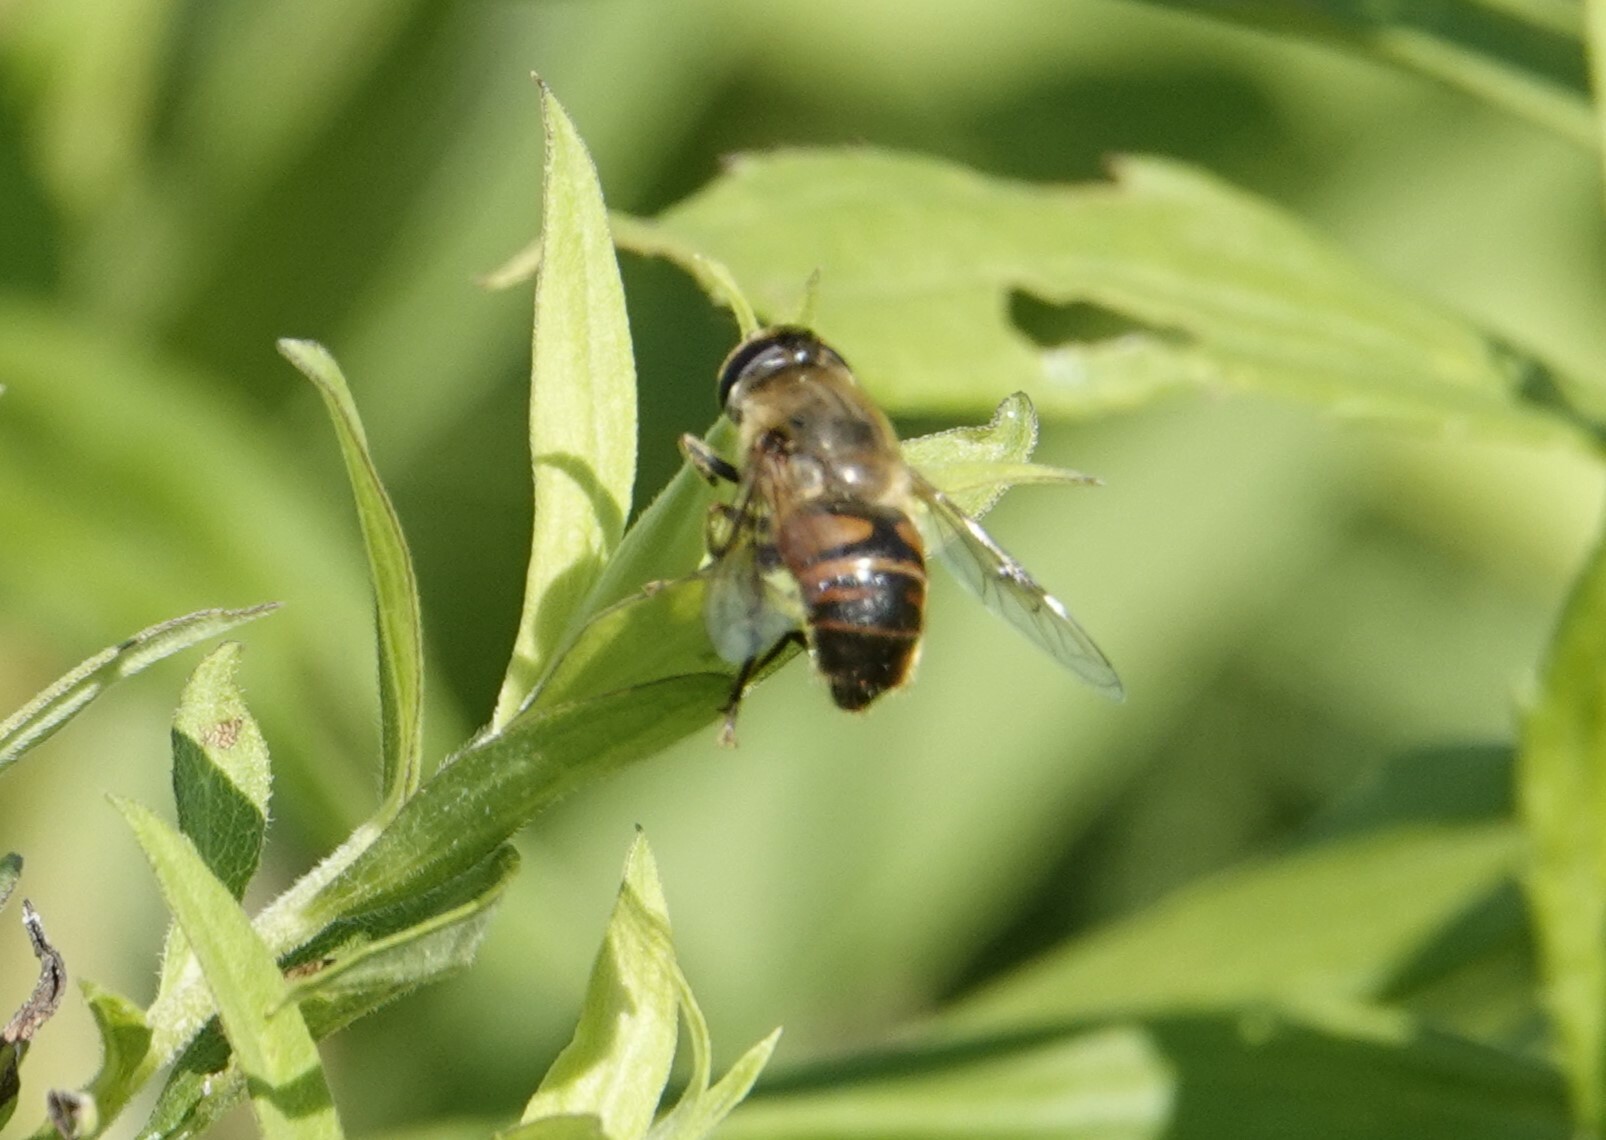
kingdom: Animalia
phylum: Arthropoda
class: Insecta
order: Diptera
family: Syrphidae
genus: Eristalis
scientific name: Eristalis tenax
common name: Drone fly
